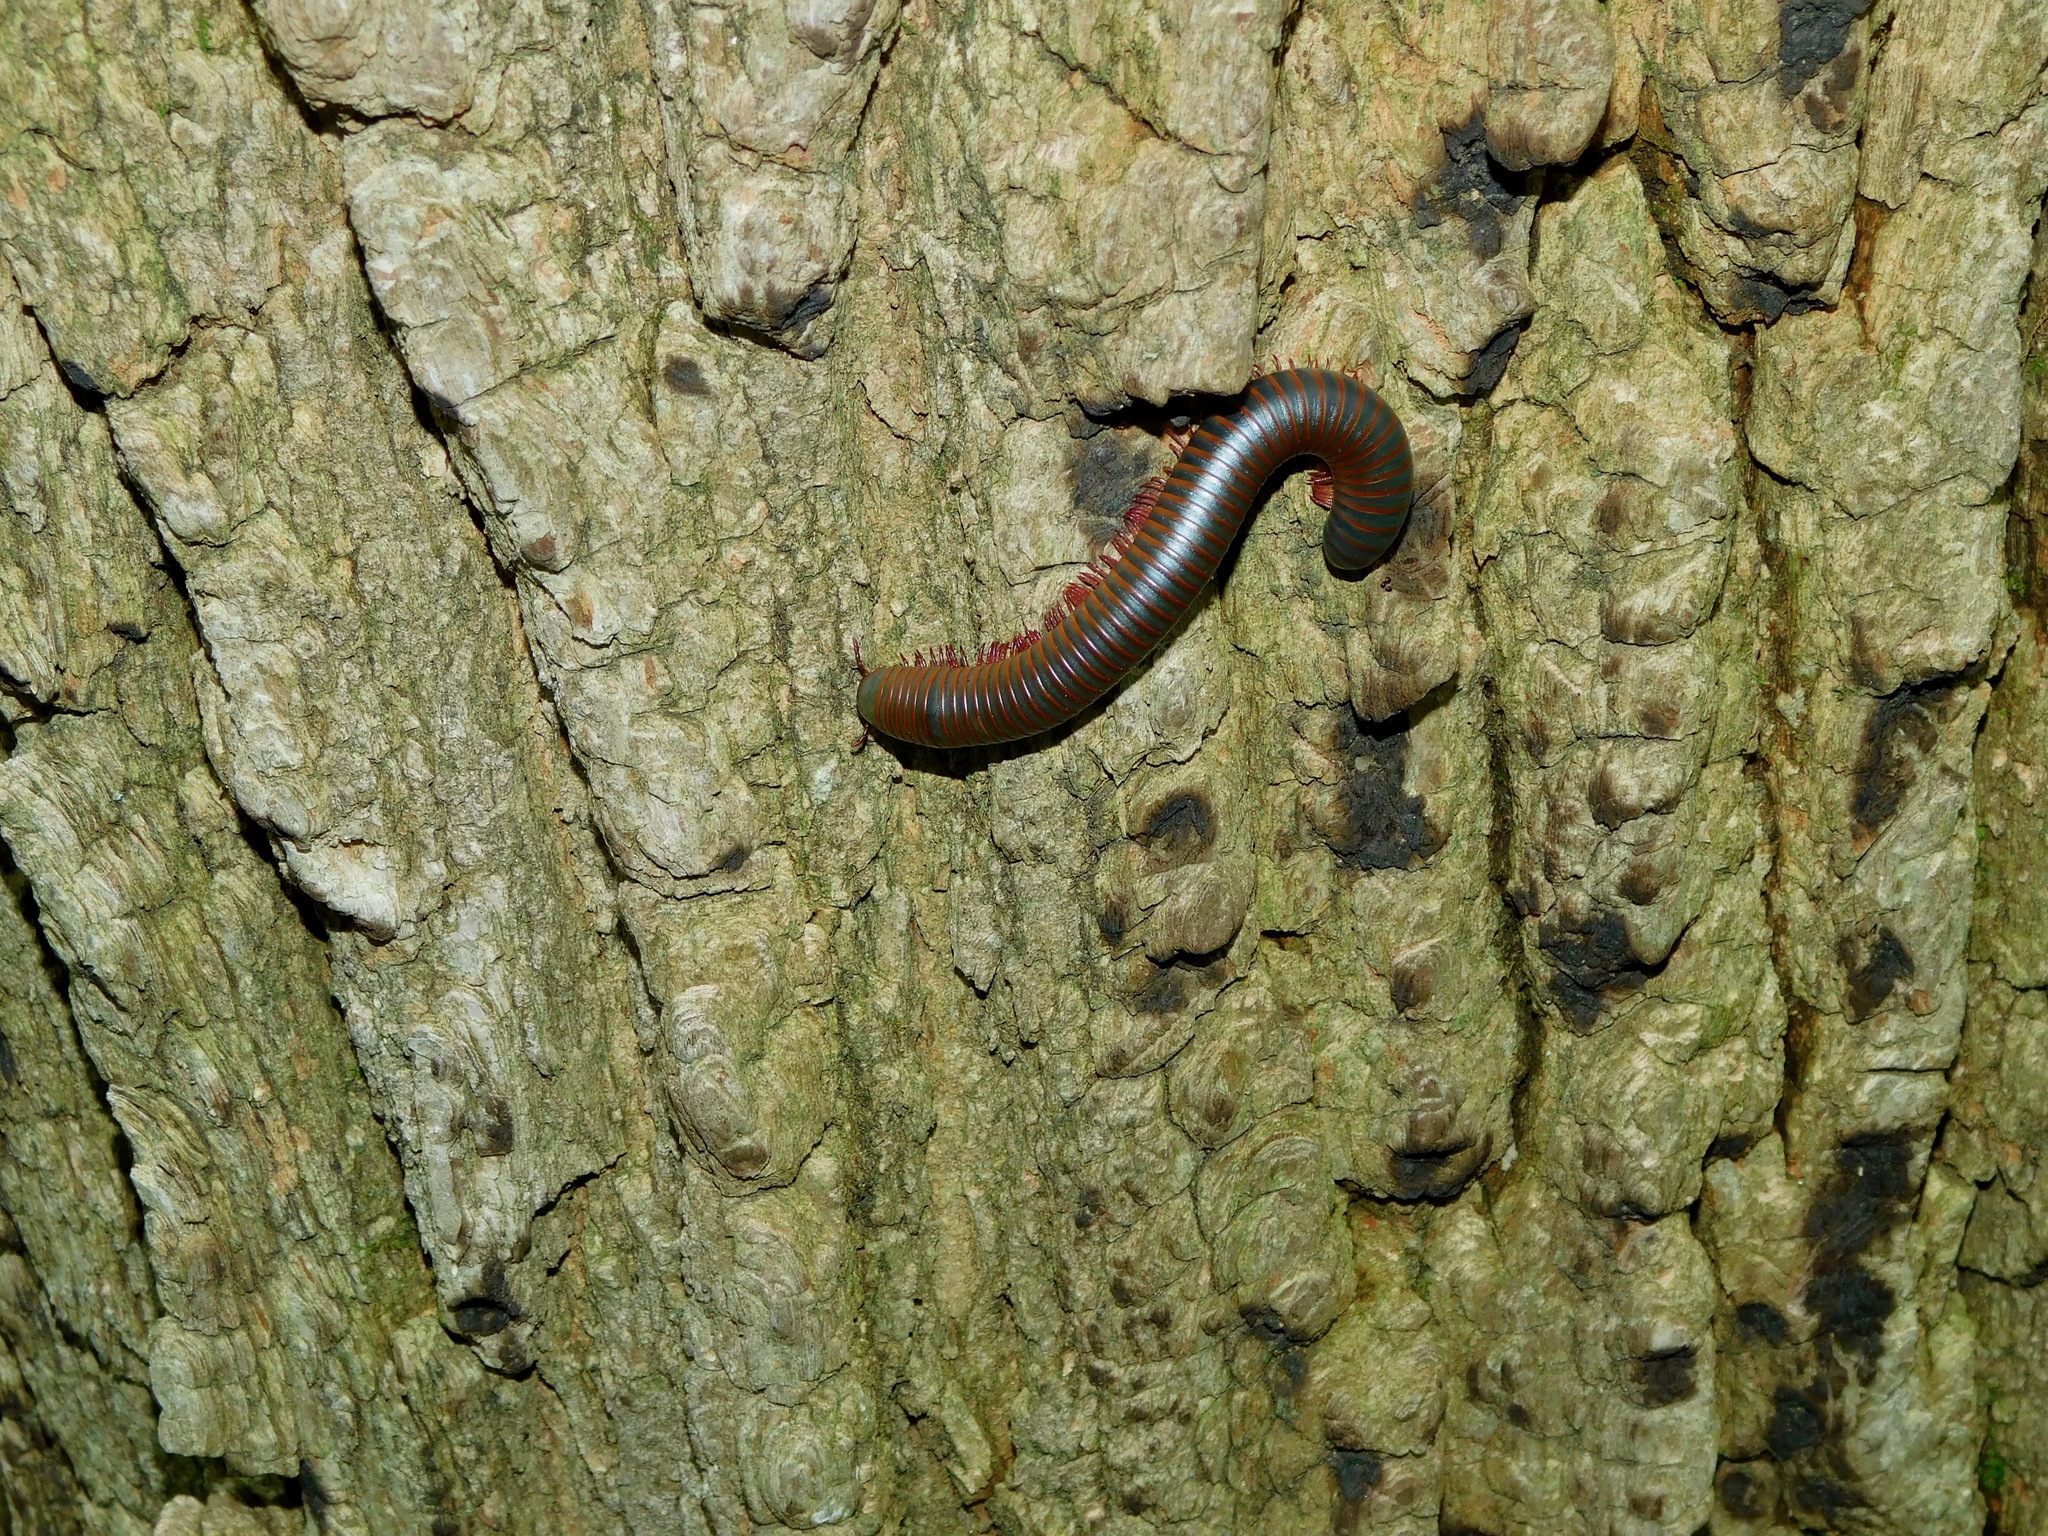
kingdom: Animalia
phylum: Arthropoda
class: Diplopoda
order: Spirobolida
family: Spirobolidae
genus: Narceus
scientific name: Narceus
